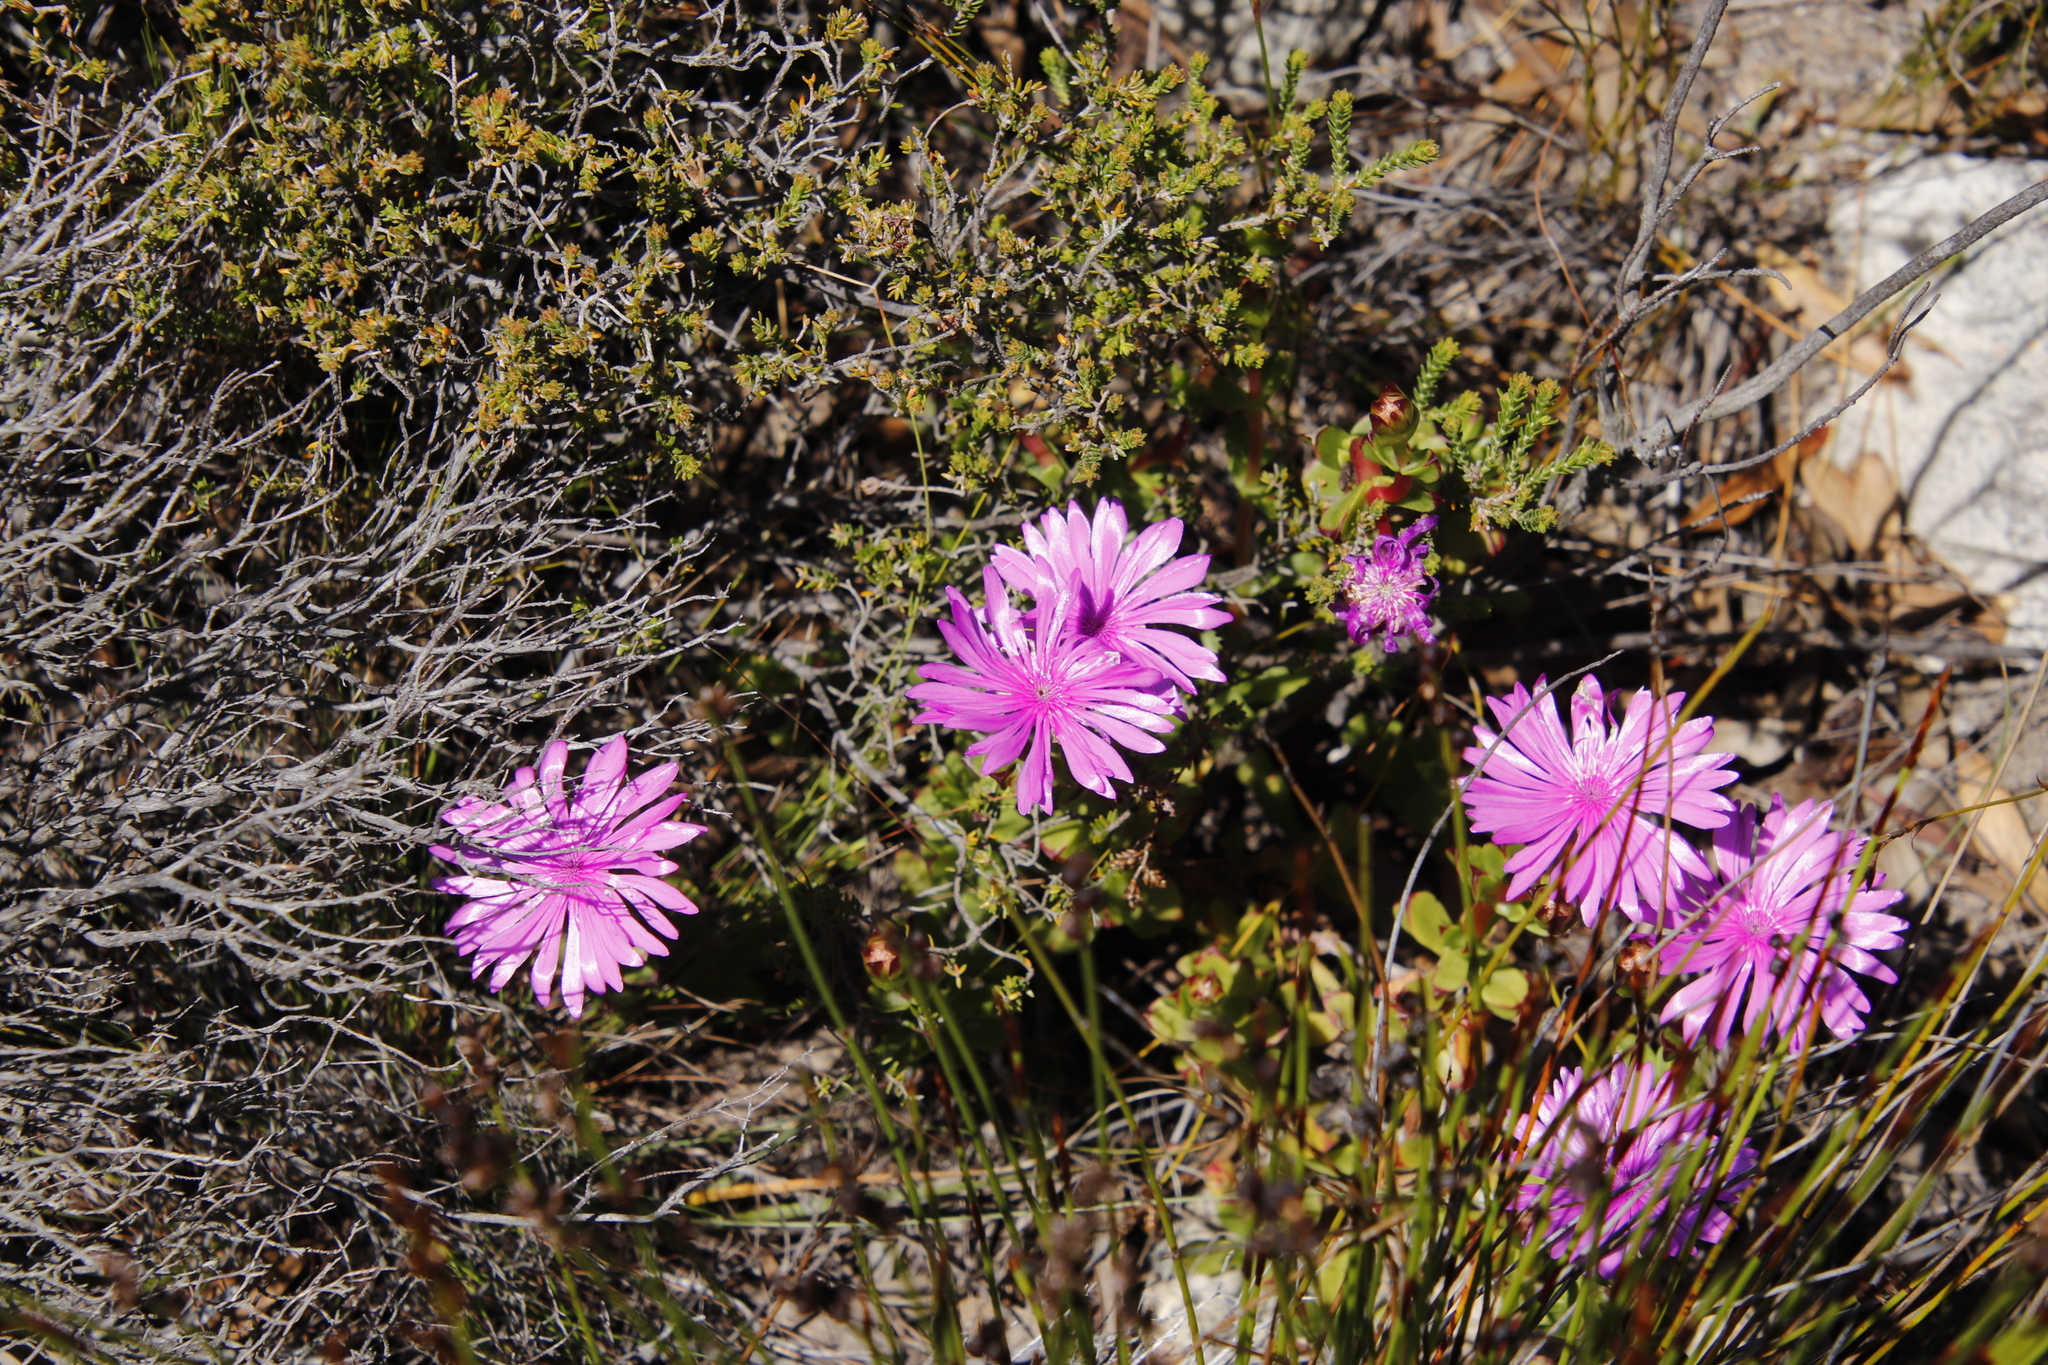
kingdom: Plantae
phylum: Tracheophyta
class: Magnoliopsida
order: Caryophyllales
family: Aizoaceae
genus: Erepsia
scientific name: Erepsia inclaudens
